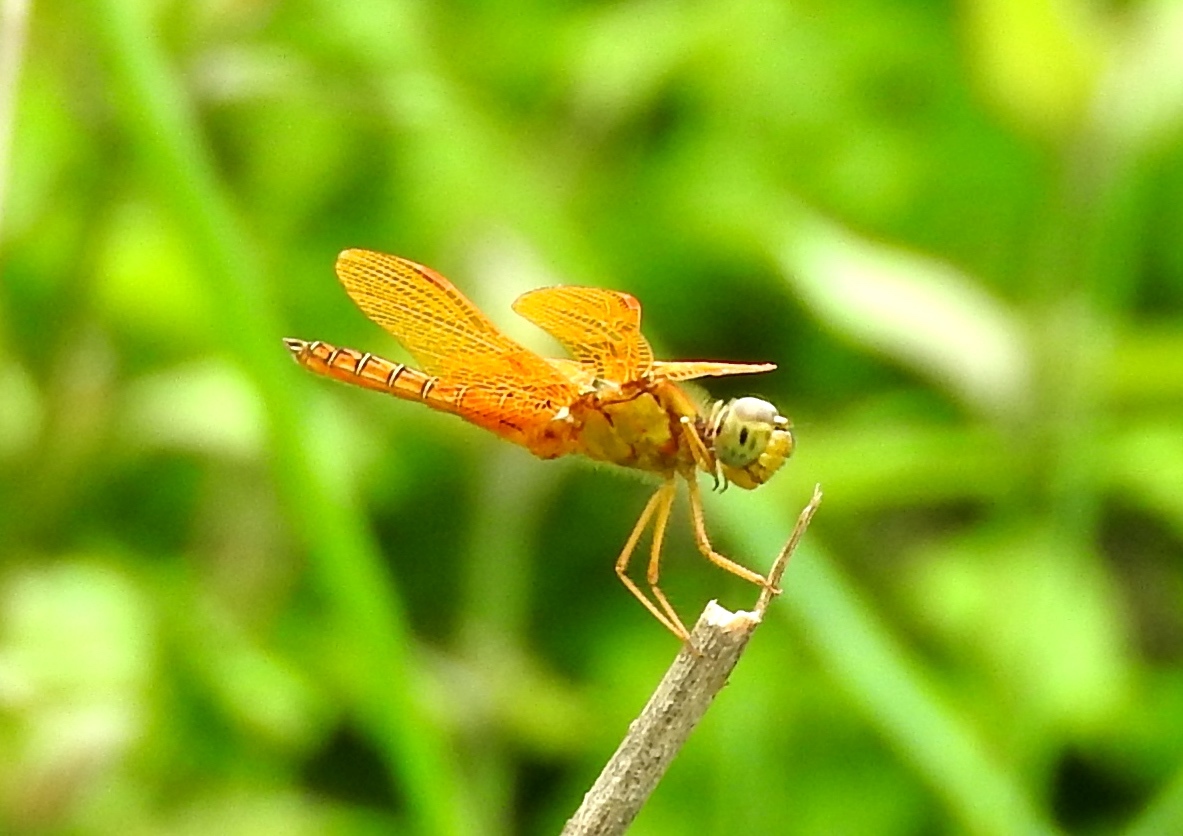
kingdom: Animalia
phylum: Arthropoda
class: Insecta
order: Odonata
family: Libellulidae
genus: Perithemis
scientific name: Perithemis intensa
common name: Mexican amberwing
